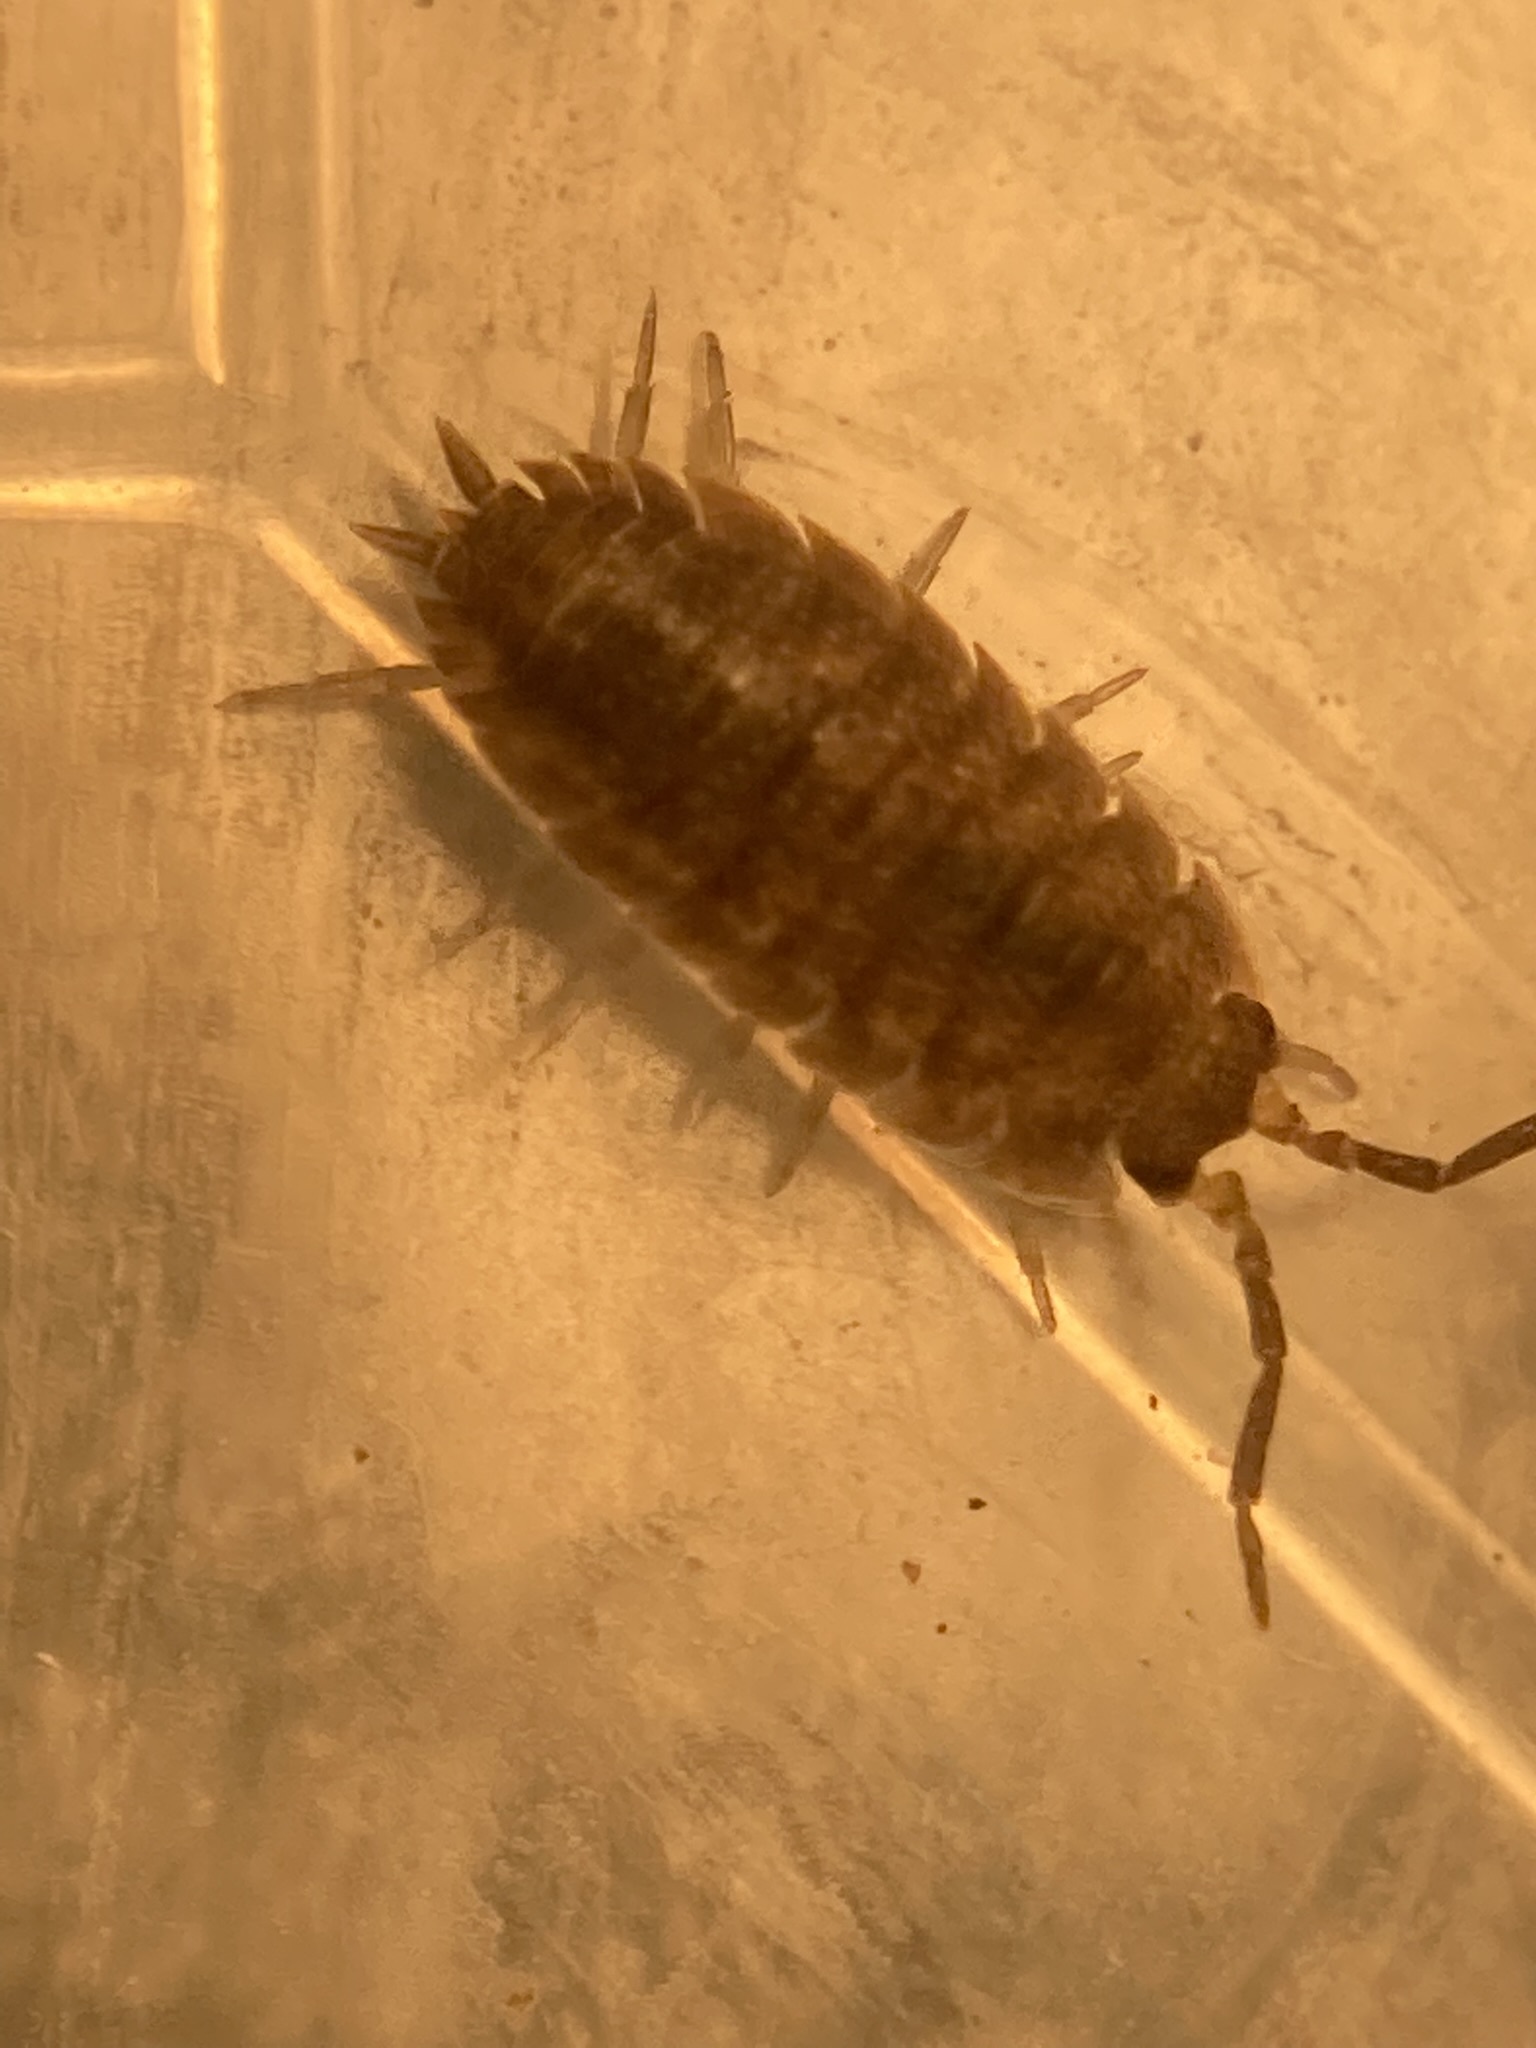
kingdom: Animalia
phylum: Arthropoda
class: Malacostraca
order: Isopoda
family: Porcellionidae
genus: Porcellio
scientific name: Porcellio scaber
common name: Common rough woodlouse
